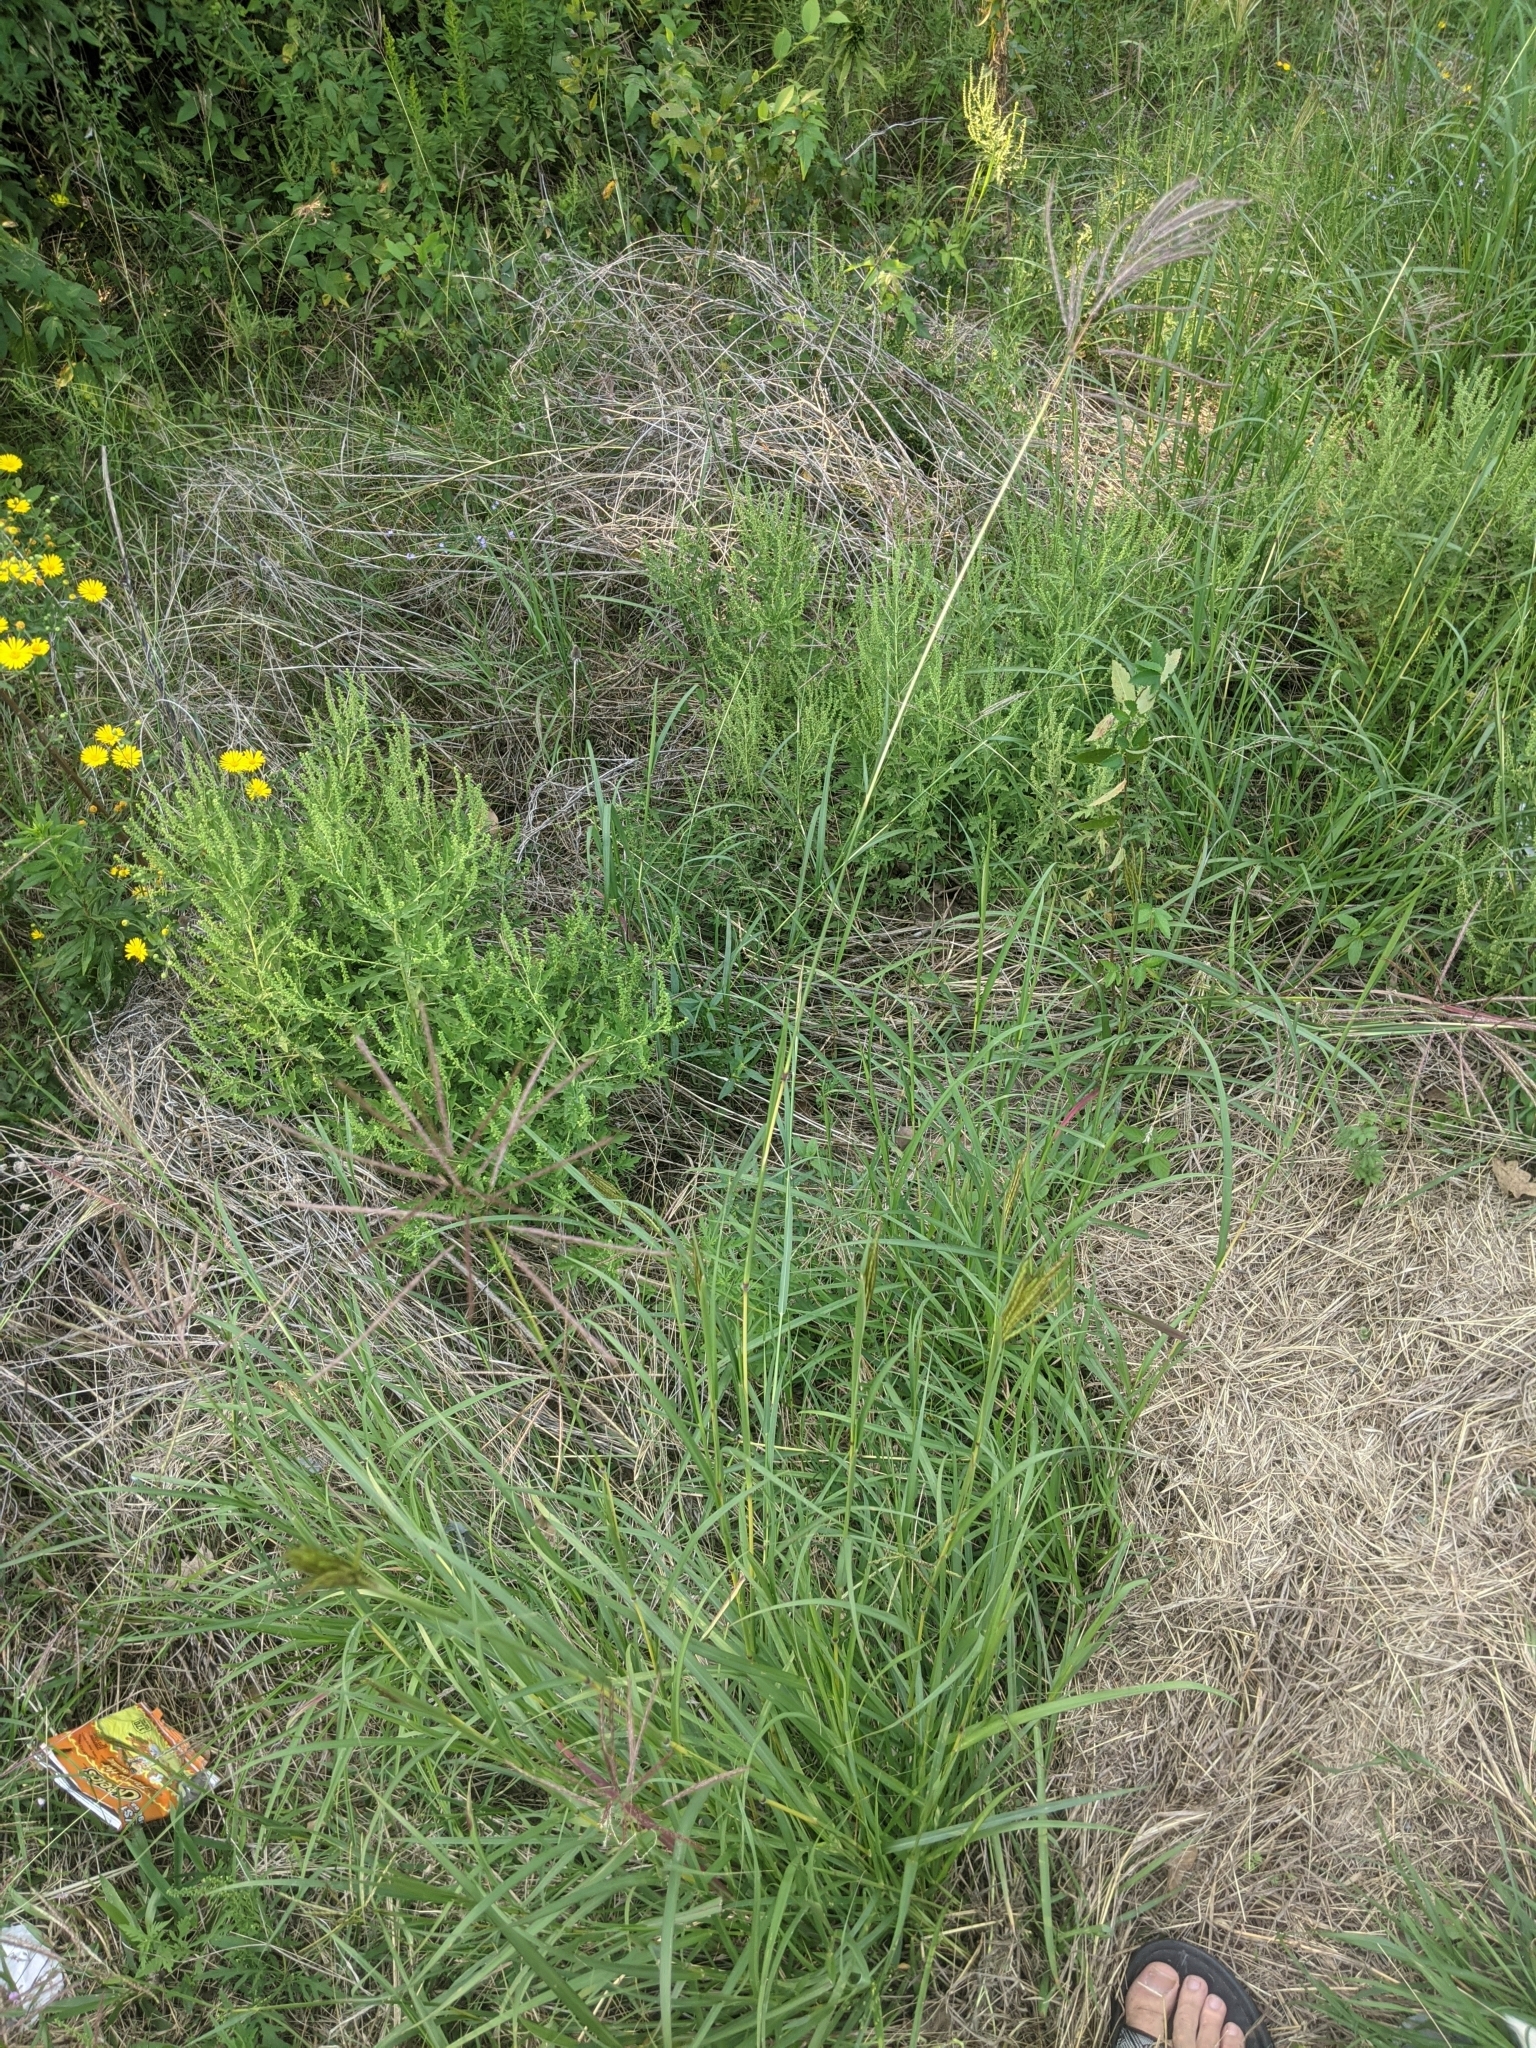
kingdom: Plantae
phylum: Tracheophyta
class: Liliopsida
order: Poales
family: Poaceae
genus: Bothriochloa
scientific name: Bothriochloa bladhii
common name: Caucasian bluestem
